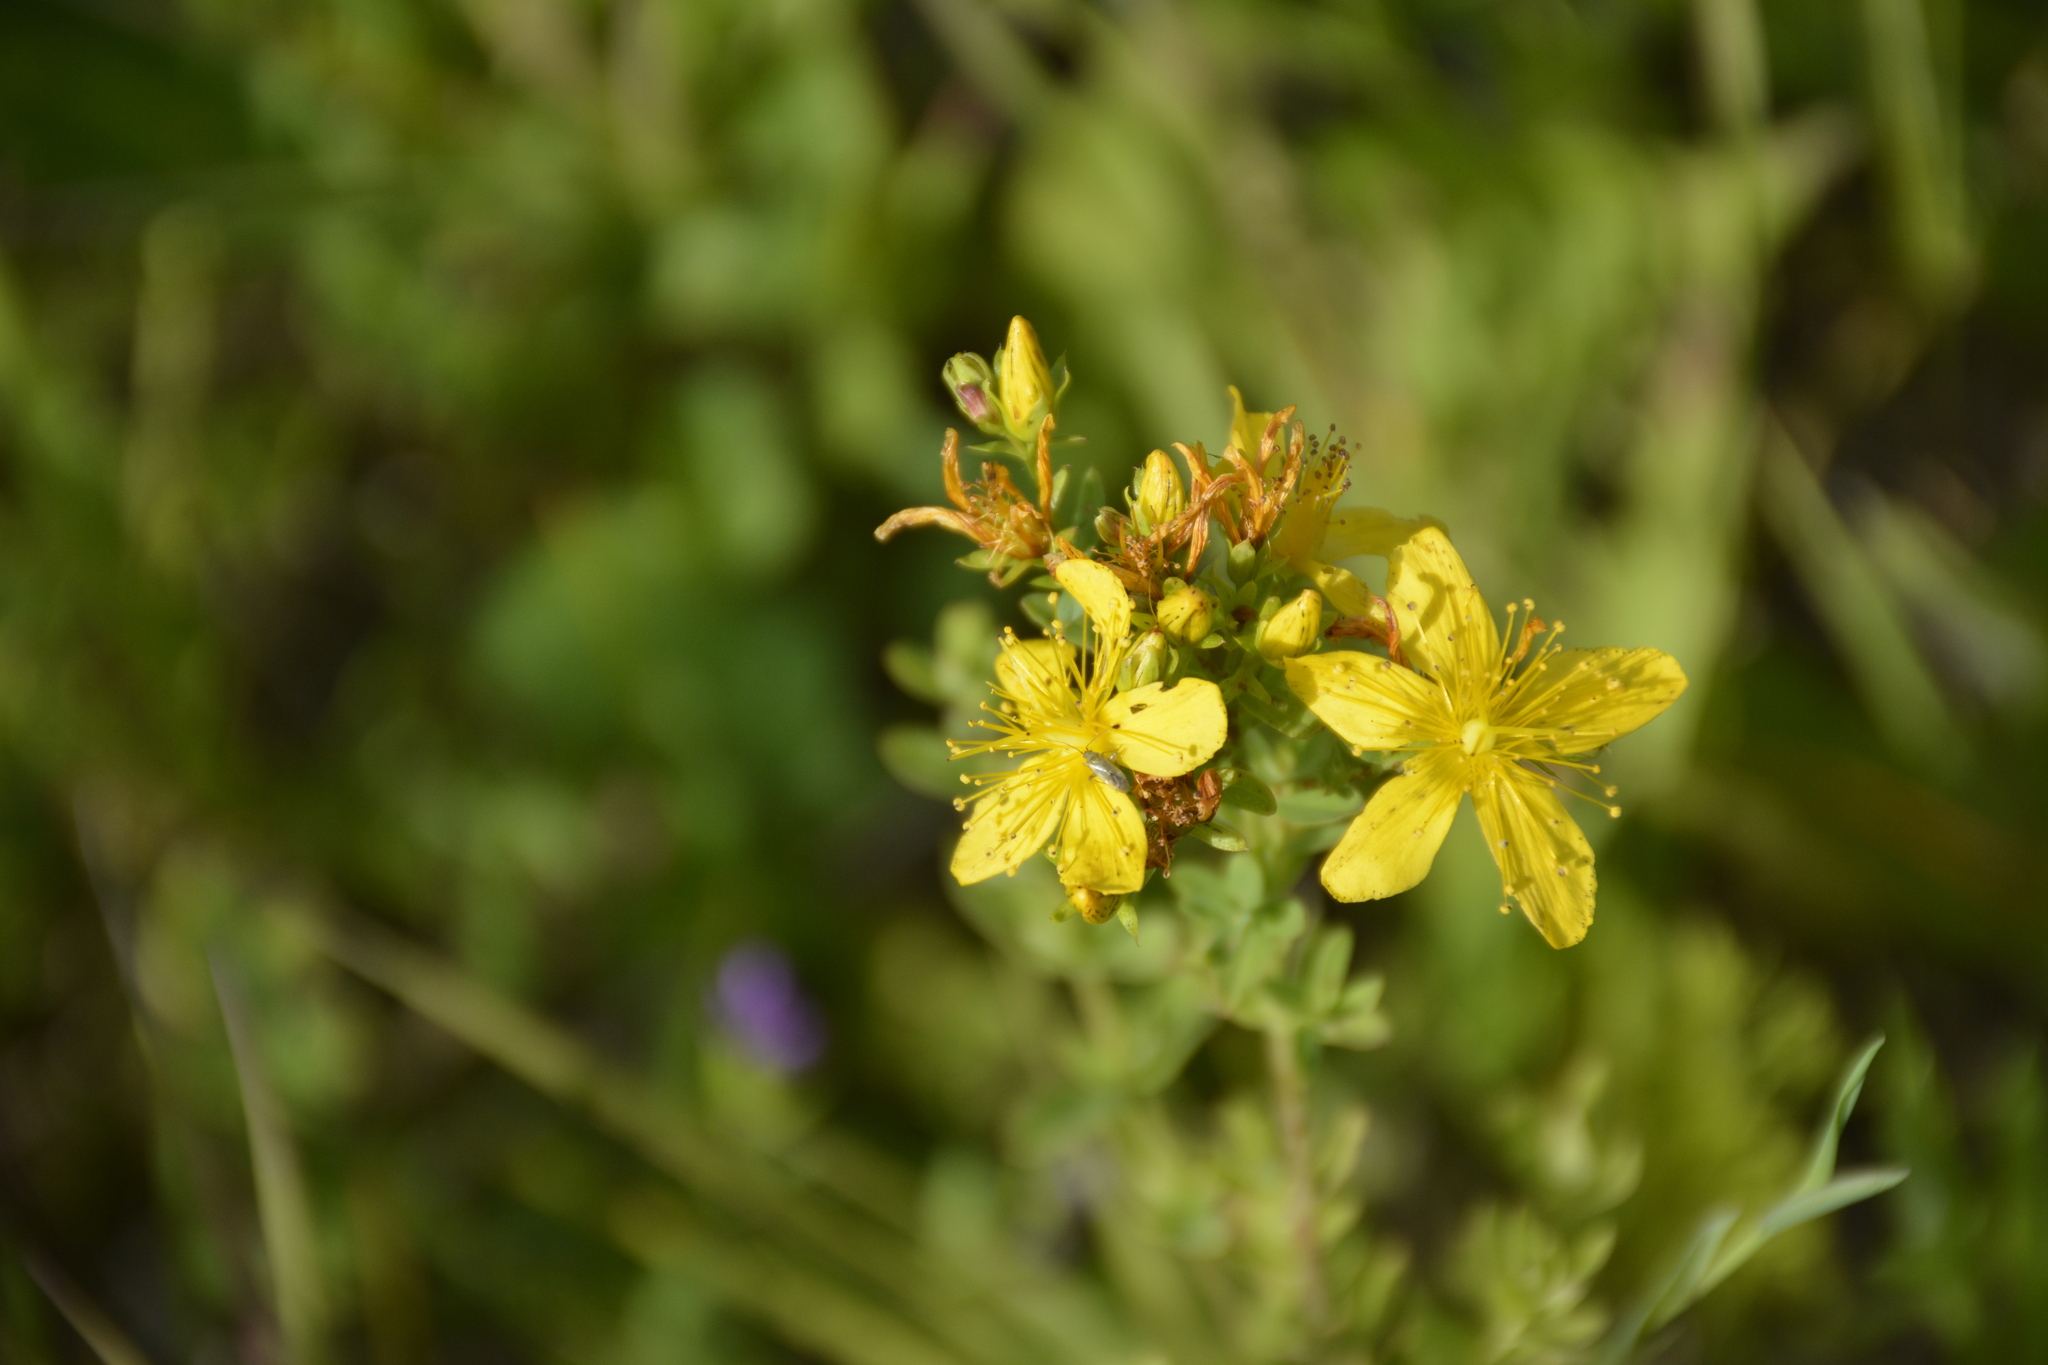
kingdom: Plantae
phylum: Tracheophyta
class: Magnoliopsida
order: Malpighiales
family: Hypericaceae
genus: Hypericum
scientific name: Hypericum perforatum
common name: Common st. johnswort
